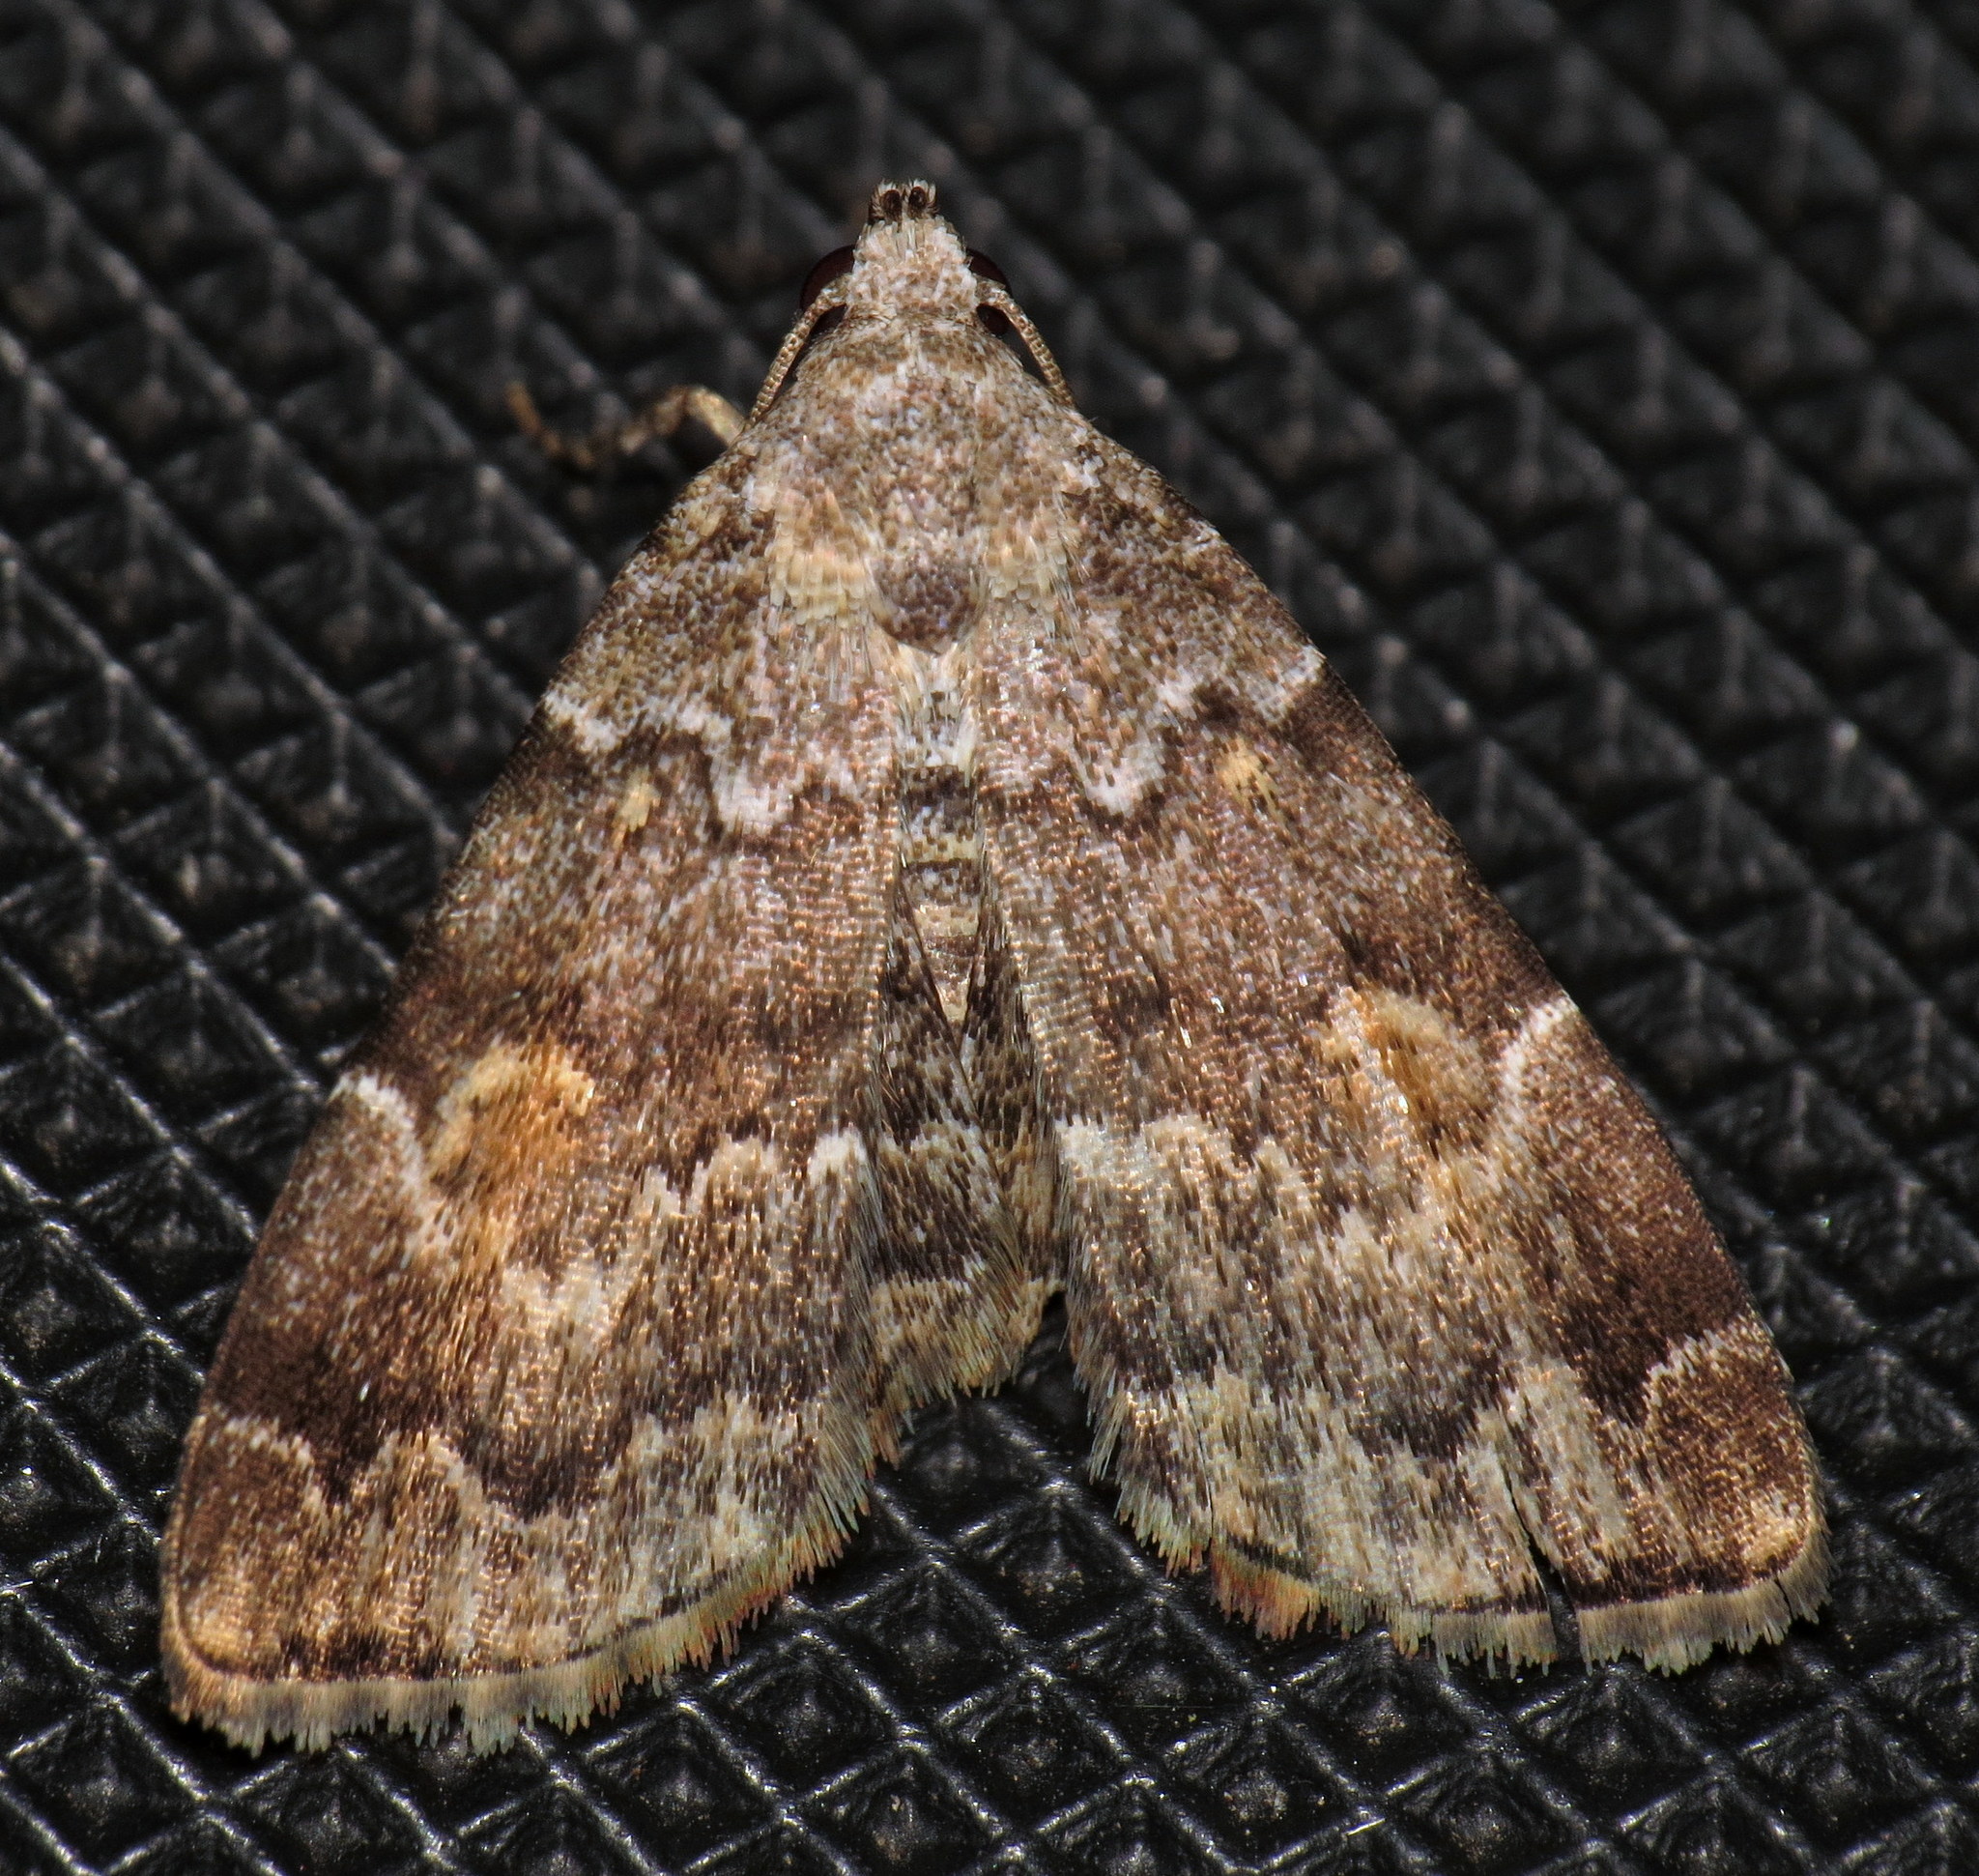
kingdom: Animalia
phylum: Arthropoda
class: Insecta
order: Lepidoptera
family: Erebidae
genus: Idia
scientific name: Idia americalis
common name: American idia moth
